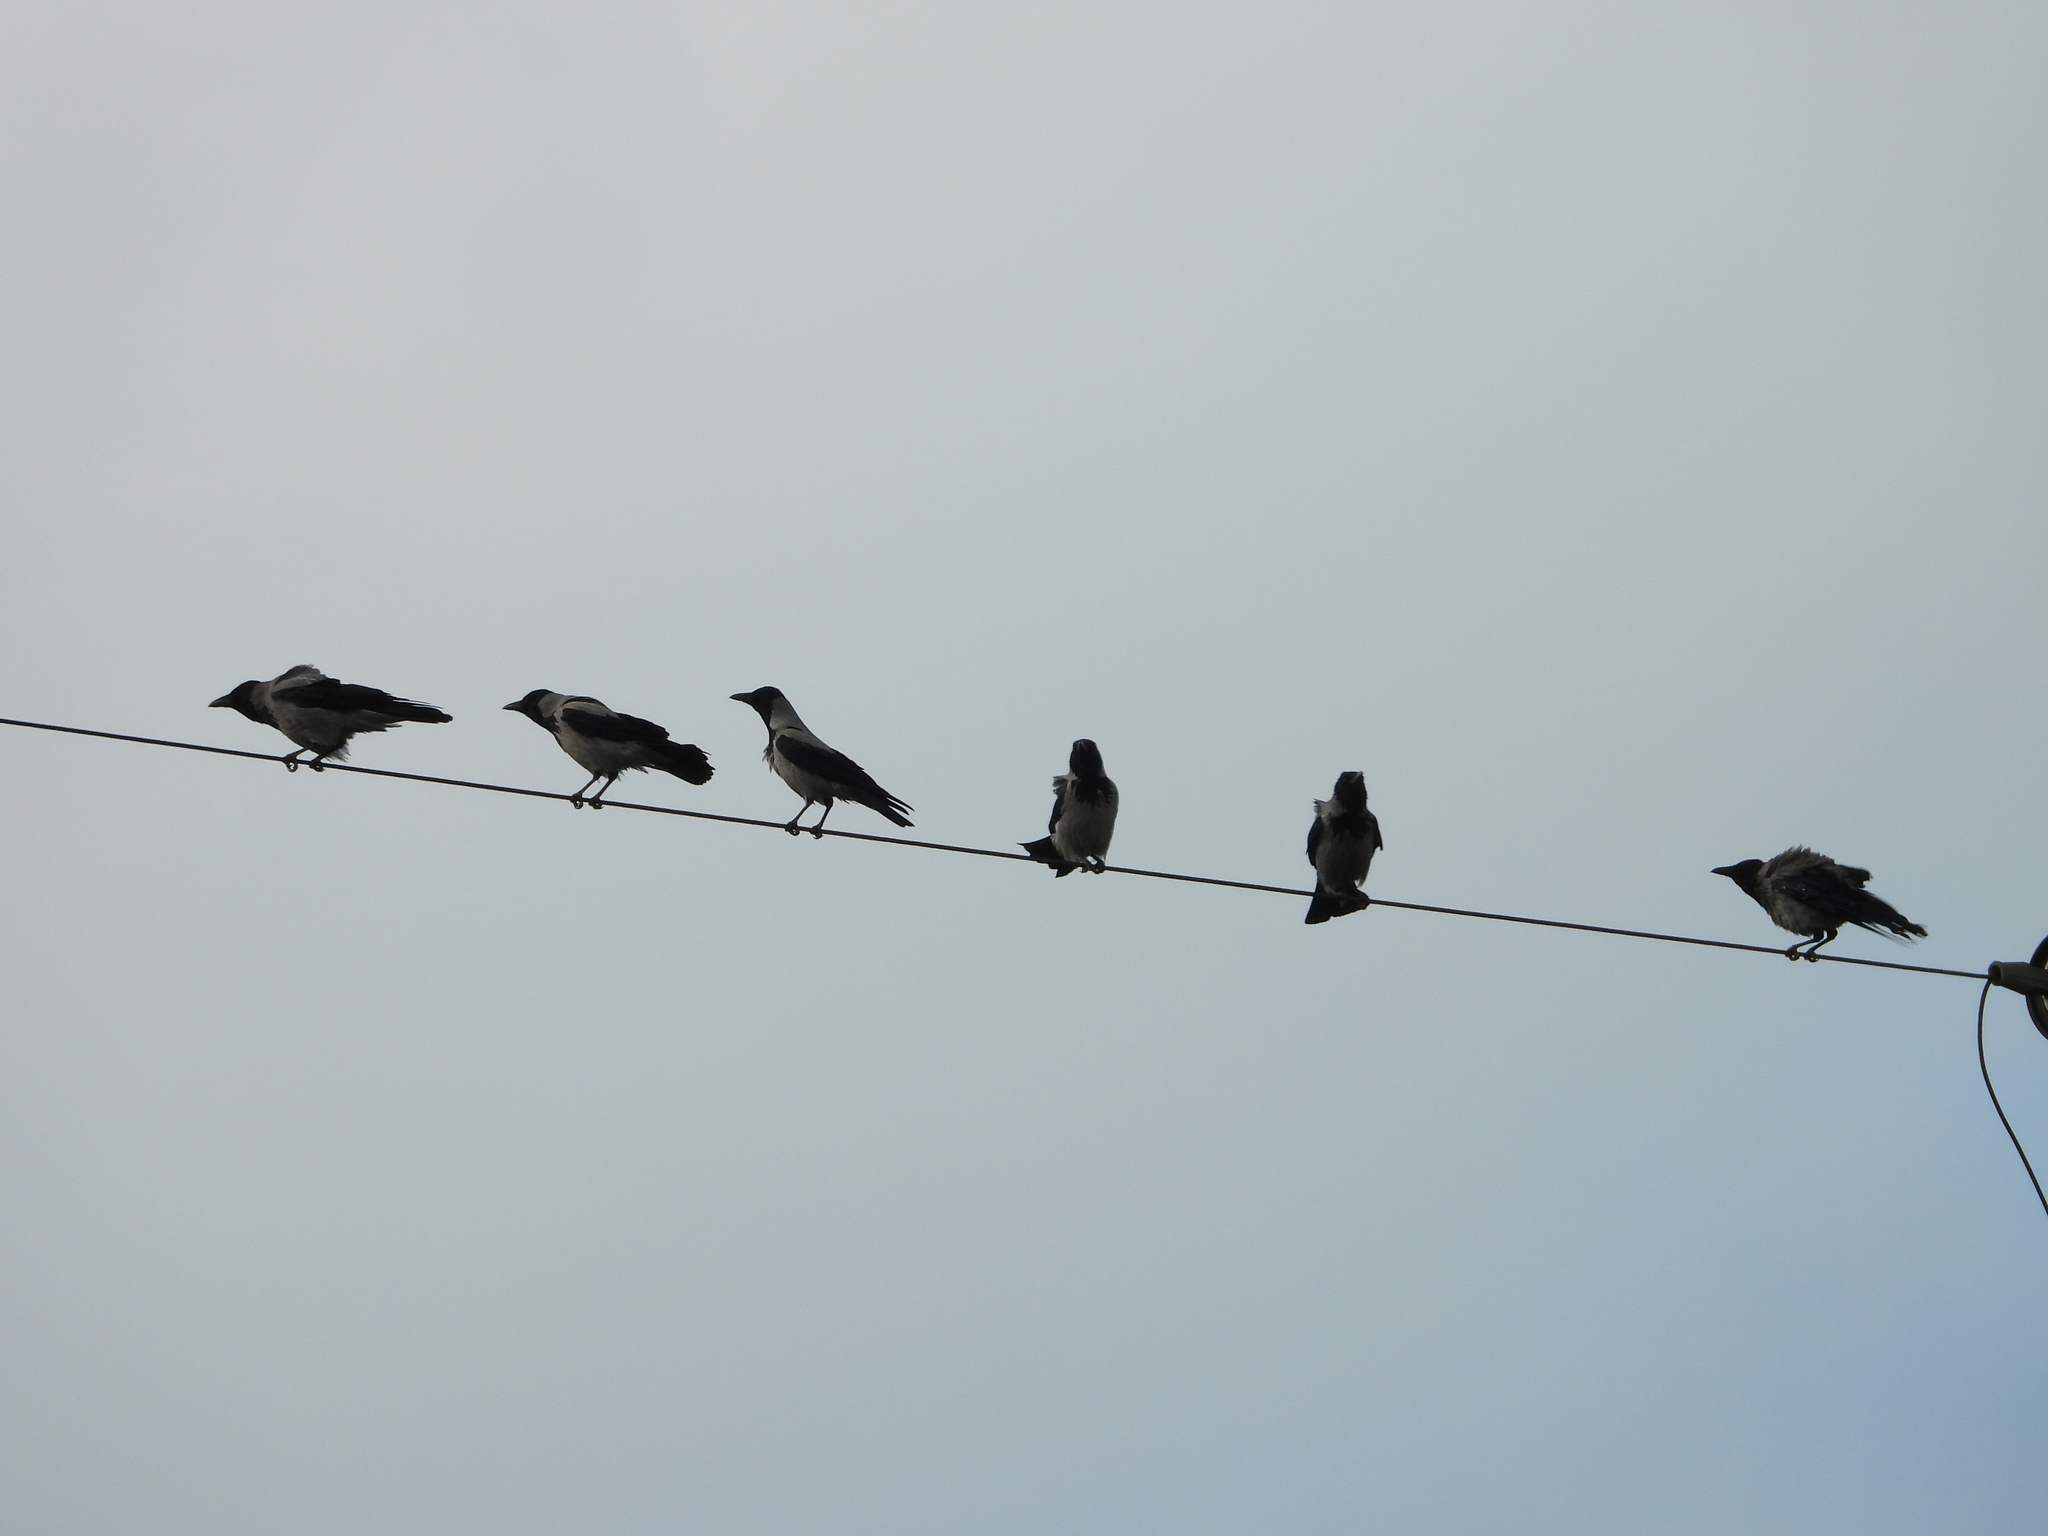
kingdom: Animalia
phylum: Chordata
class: Aves
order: Passeriformes
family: Corvidae
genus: Corvus
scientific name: Corvus cornix
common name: Hooded crow
